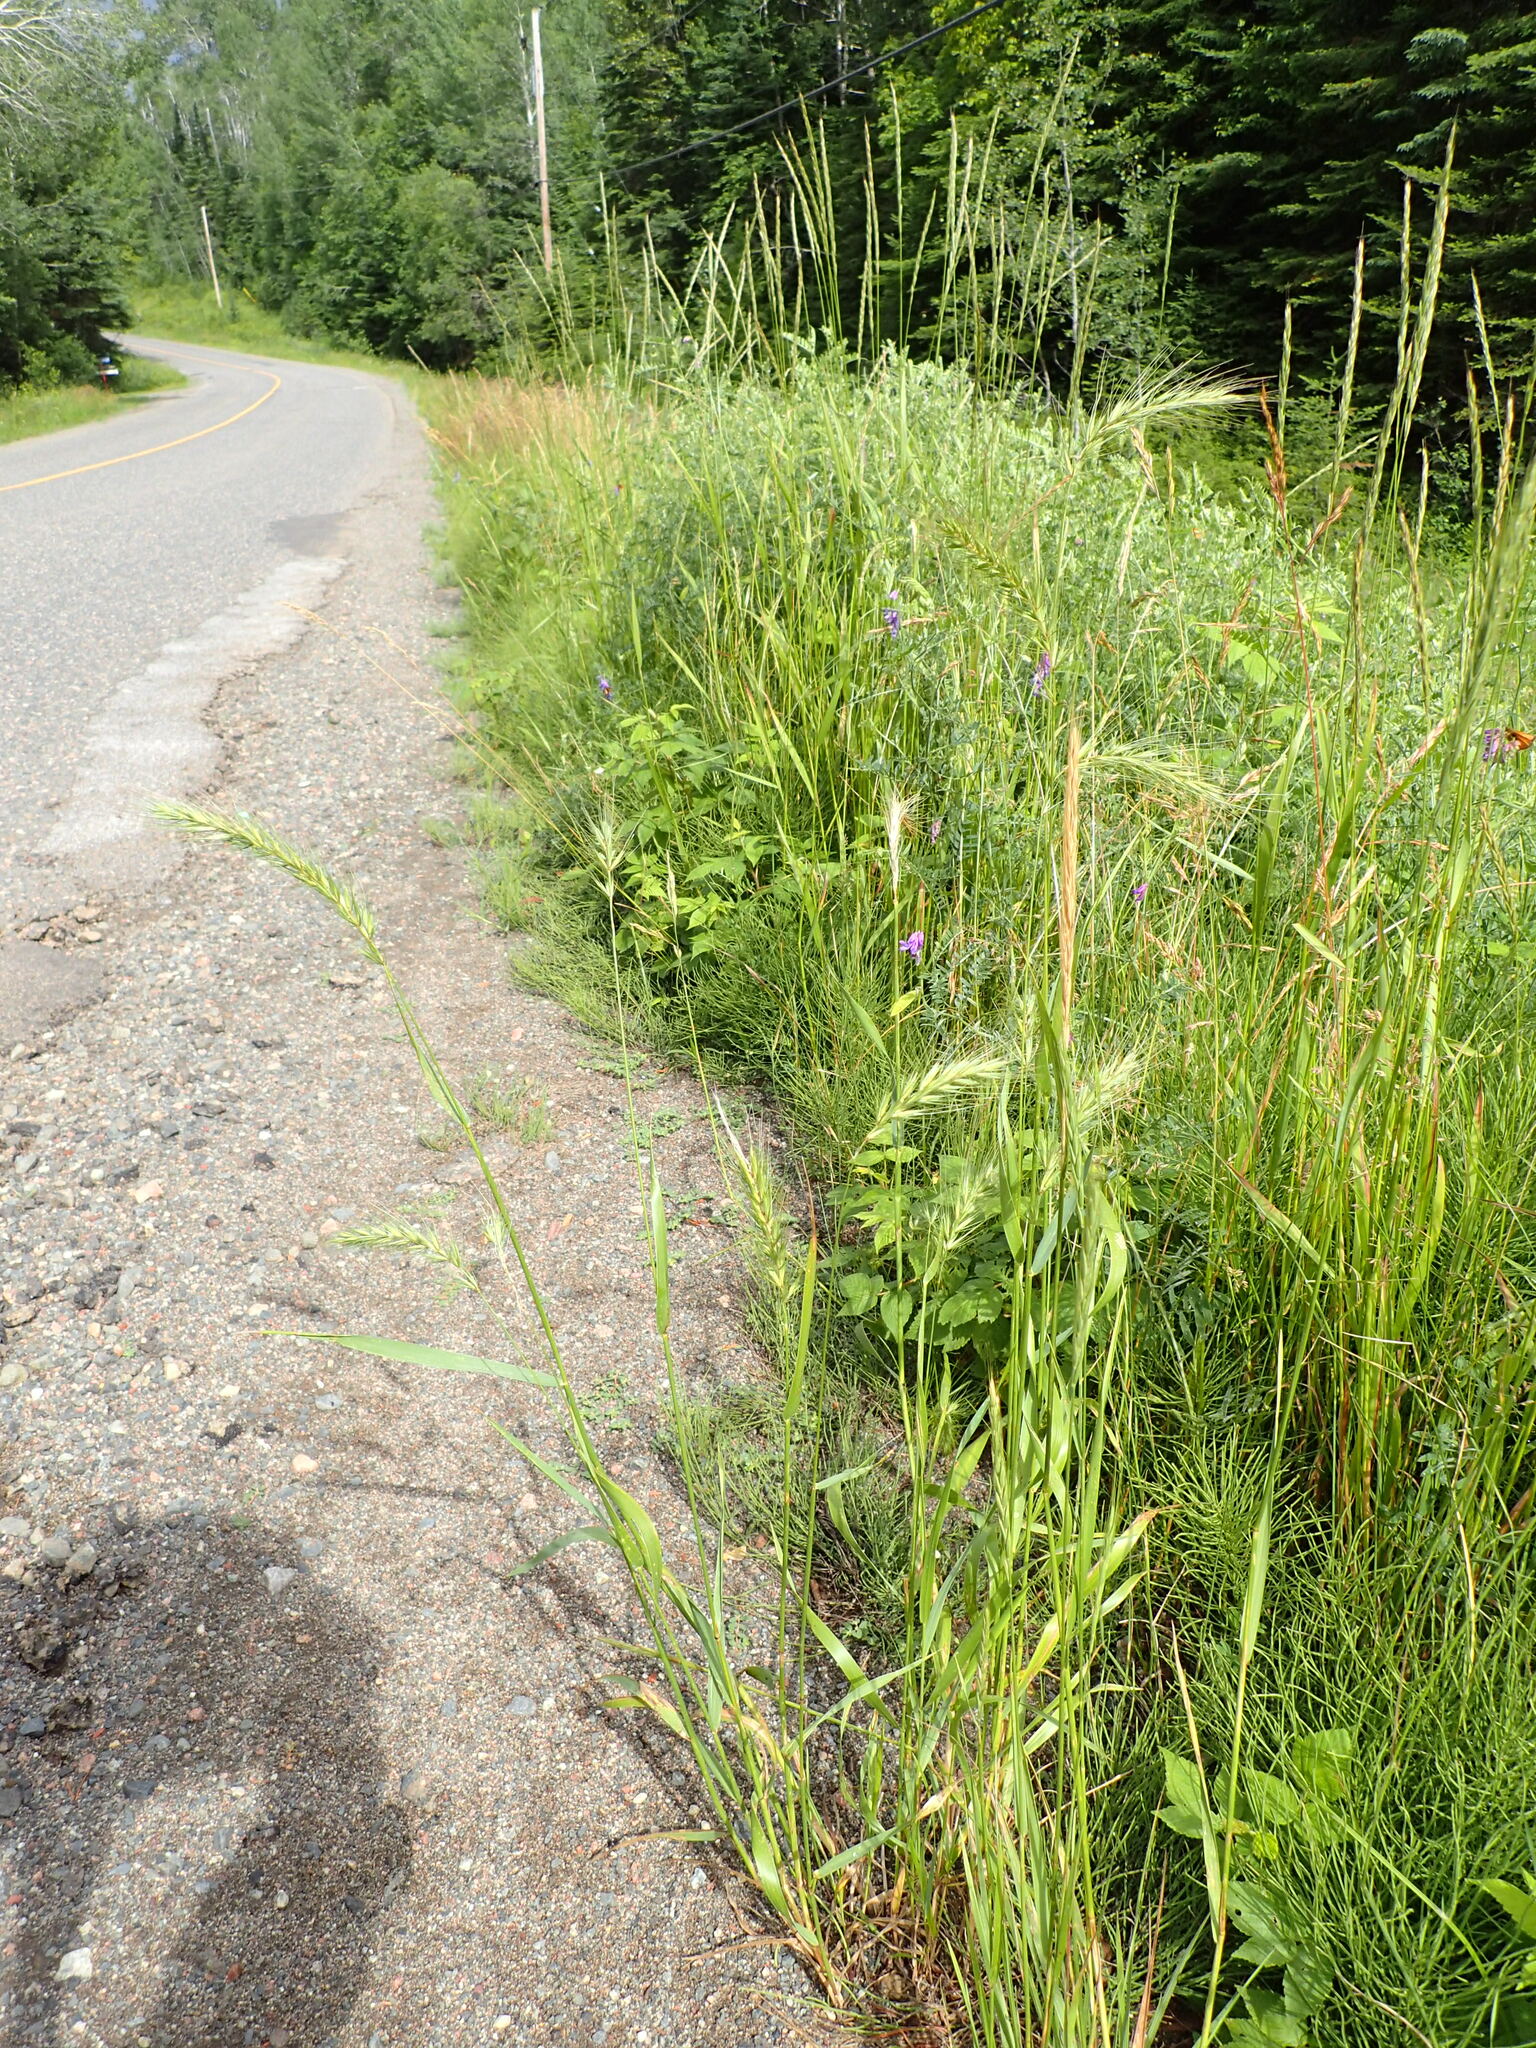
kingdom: Plantae
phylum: Tracheophyta
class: Liliopsida
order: Poales
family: Poaceae
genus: Elymus
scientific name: Elymus canadensis
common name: Canada wild rye
